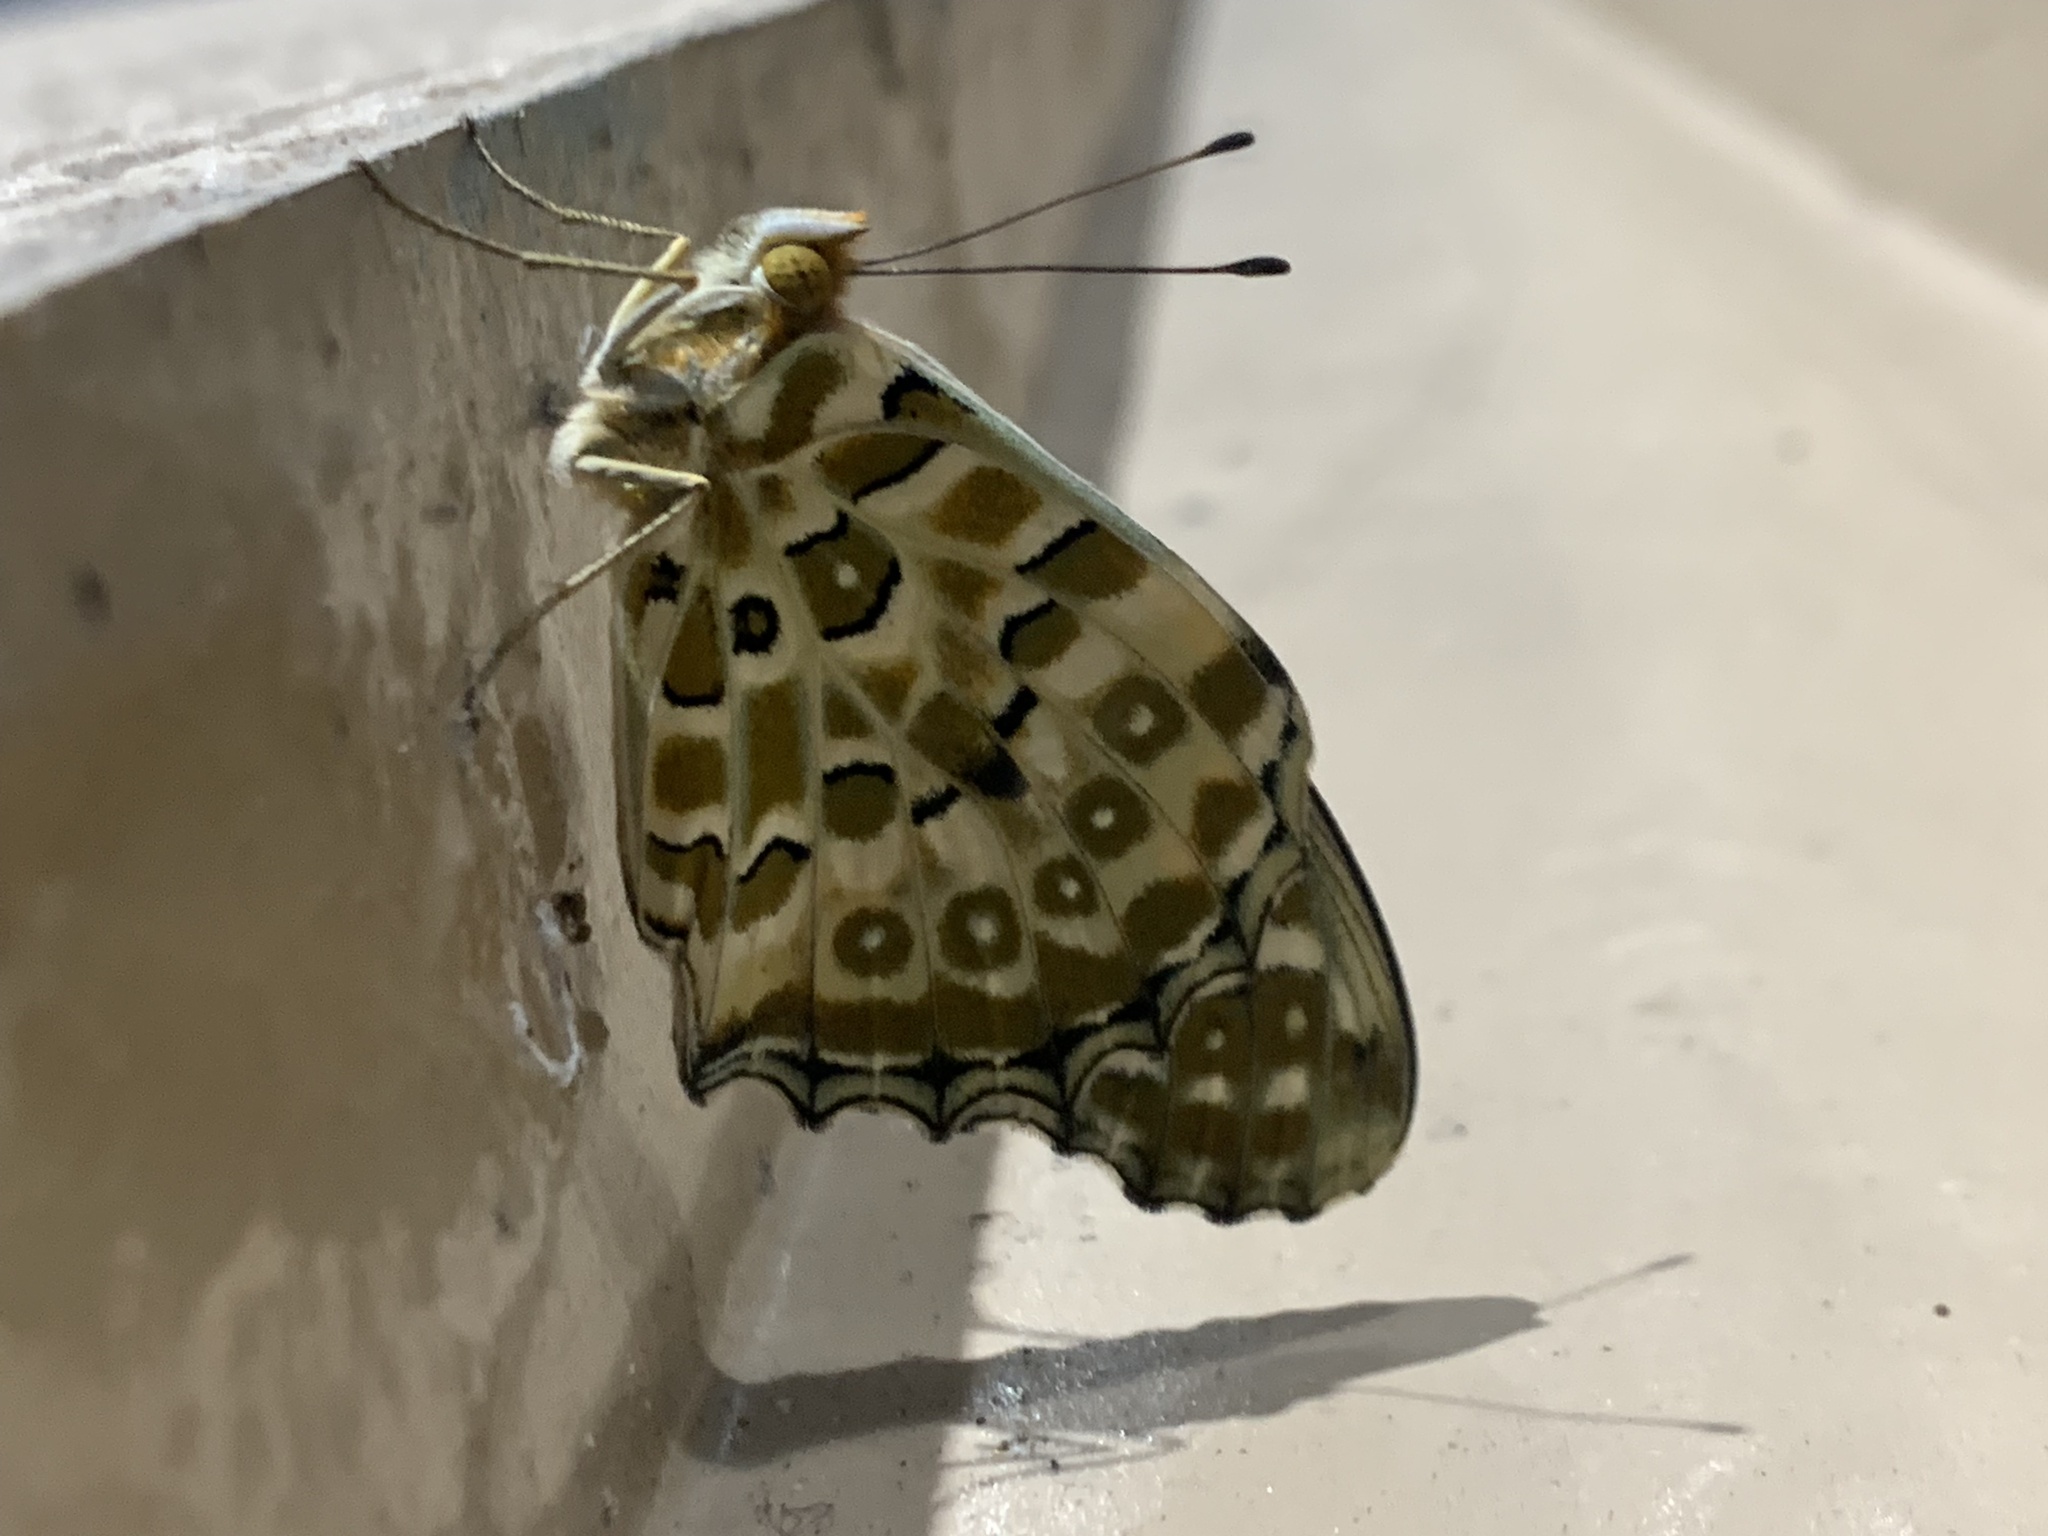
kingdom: Animalia
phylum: Arthropoda
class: Insecta
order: Lepidoptera
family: Nymphalidae
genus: Argynnis
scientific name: Argynnis hyperbius
